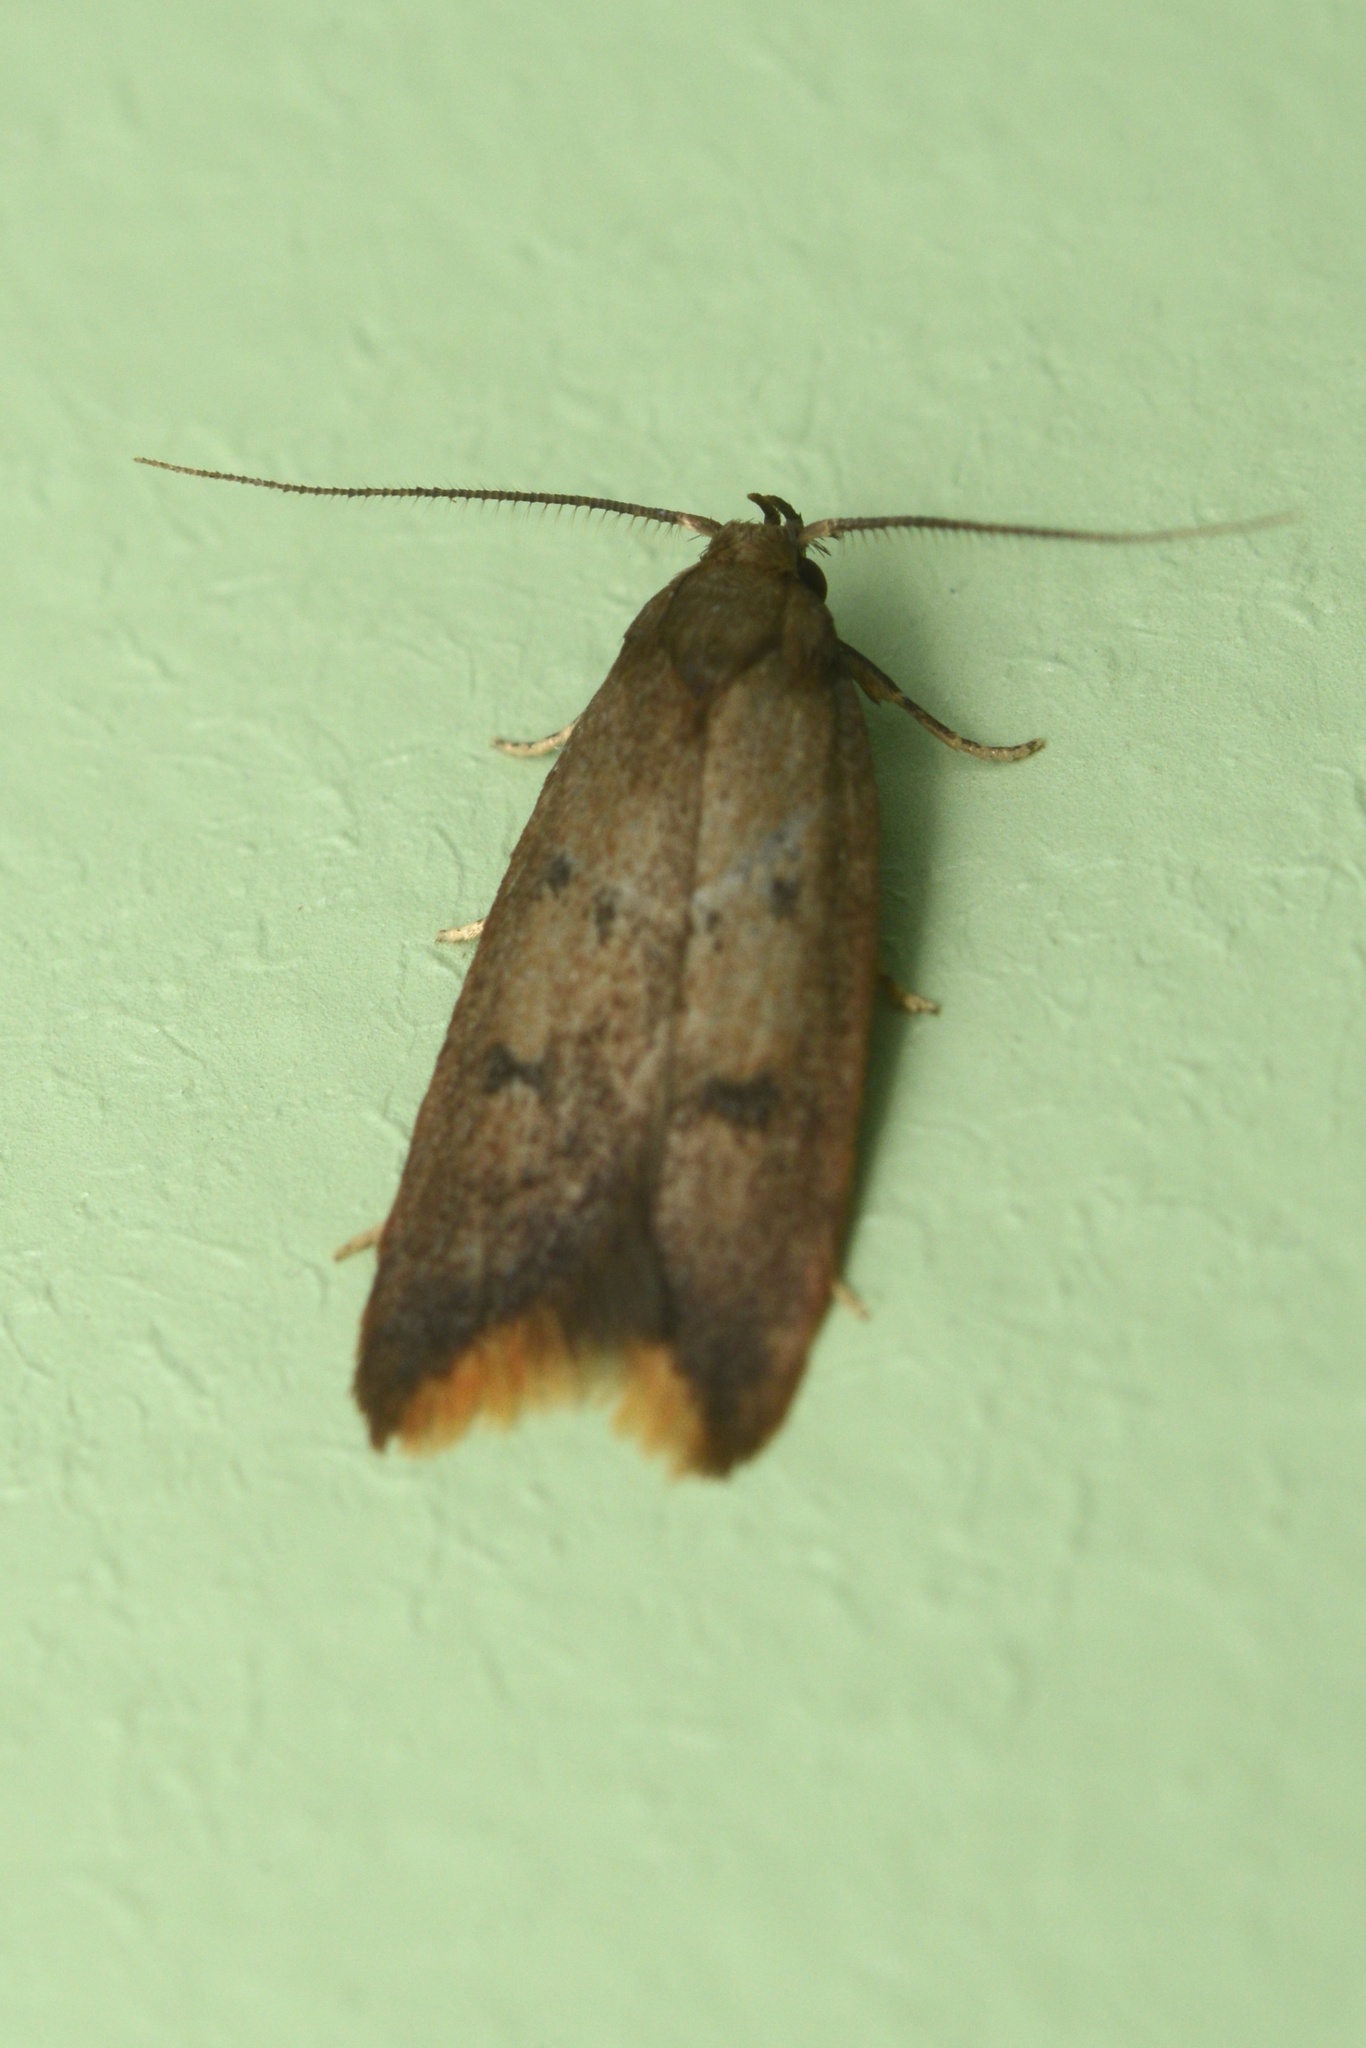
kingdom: Animalia
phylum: Arthropoda
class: Insecta
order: Lepidoptera
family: Oecophoridae
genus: Tachystola
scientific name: Tachystola acroxantha
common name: Ruddy streak
